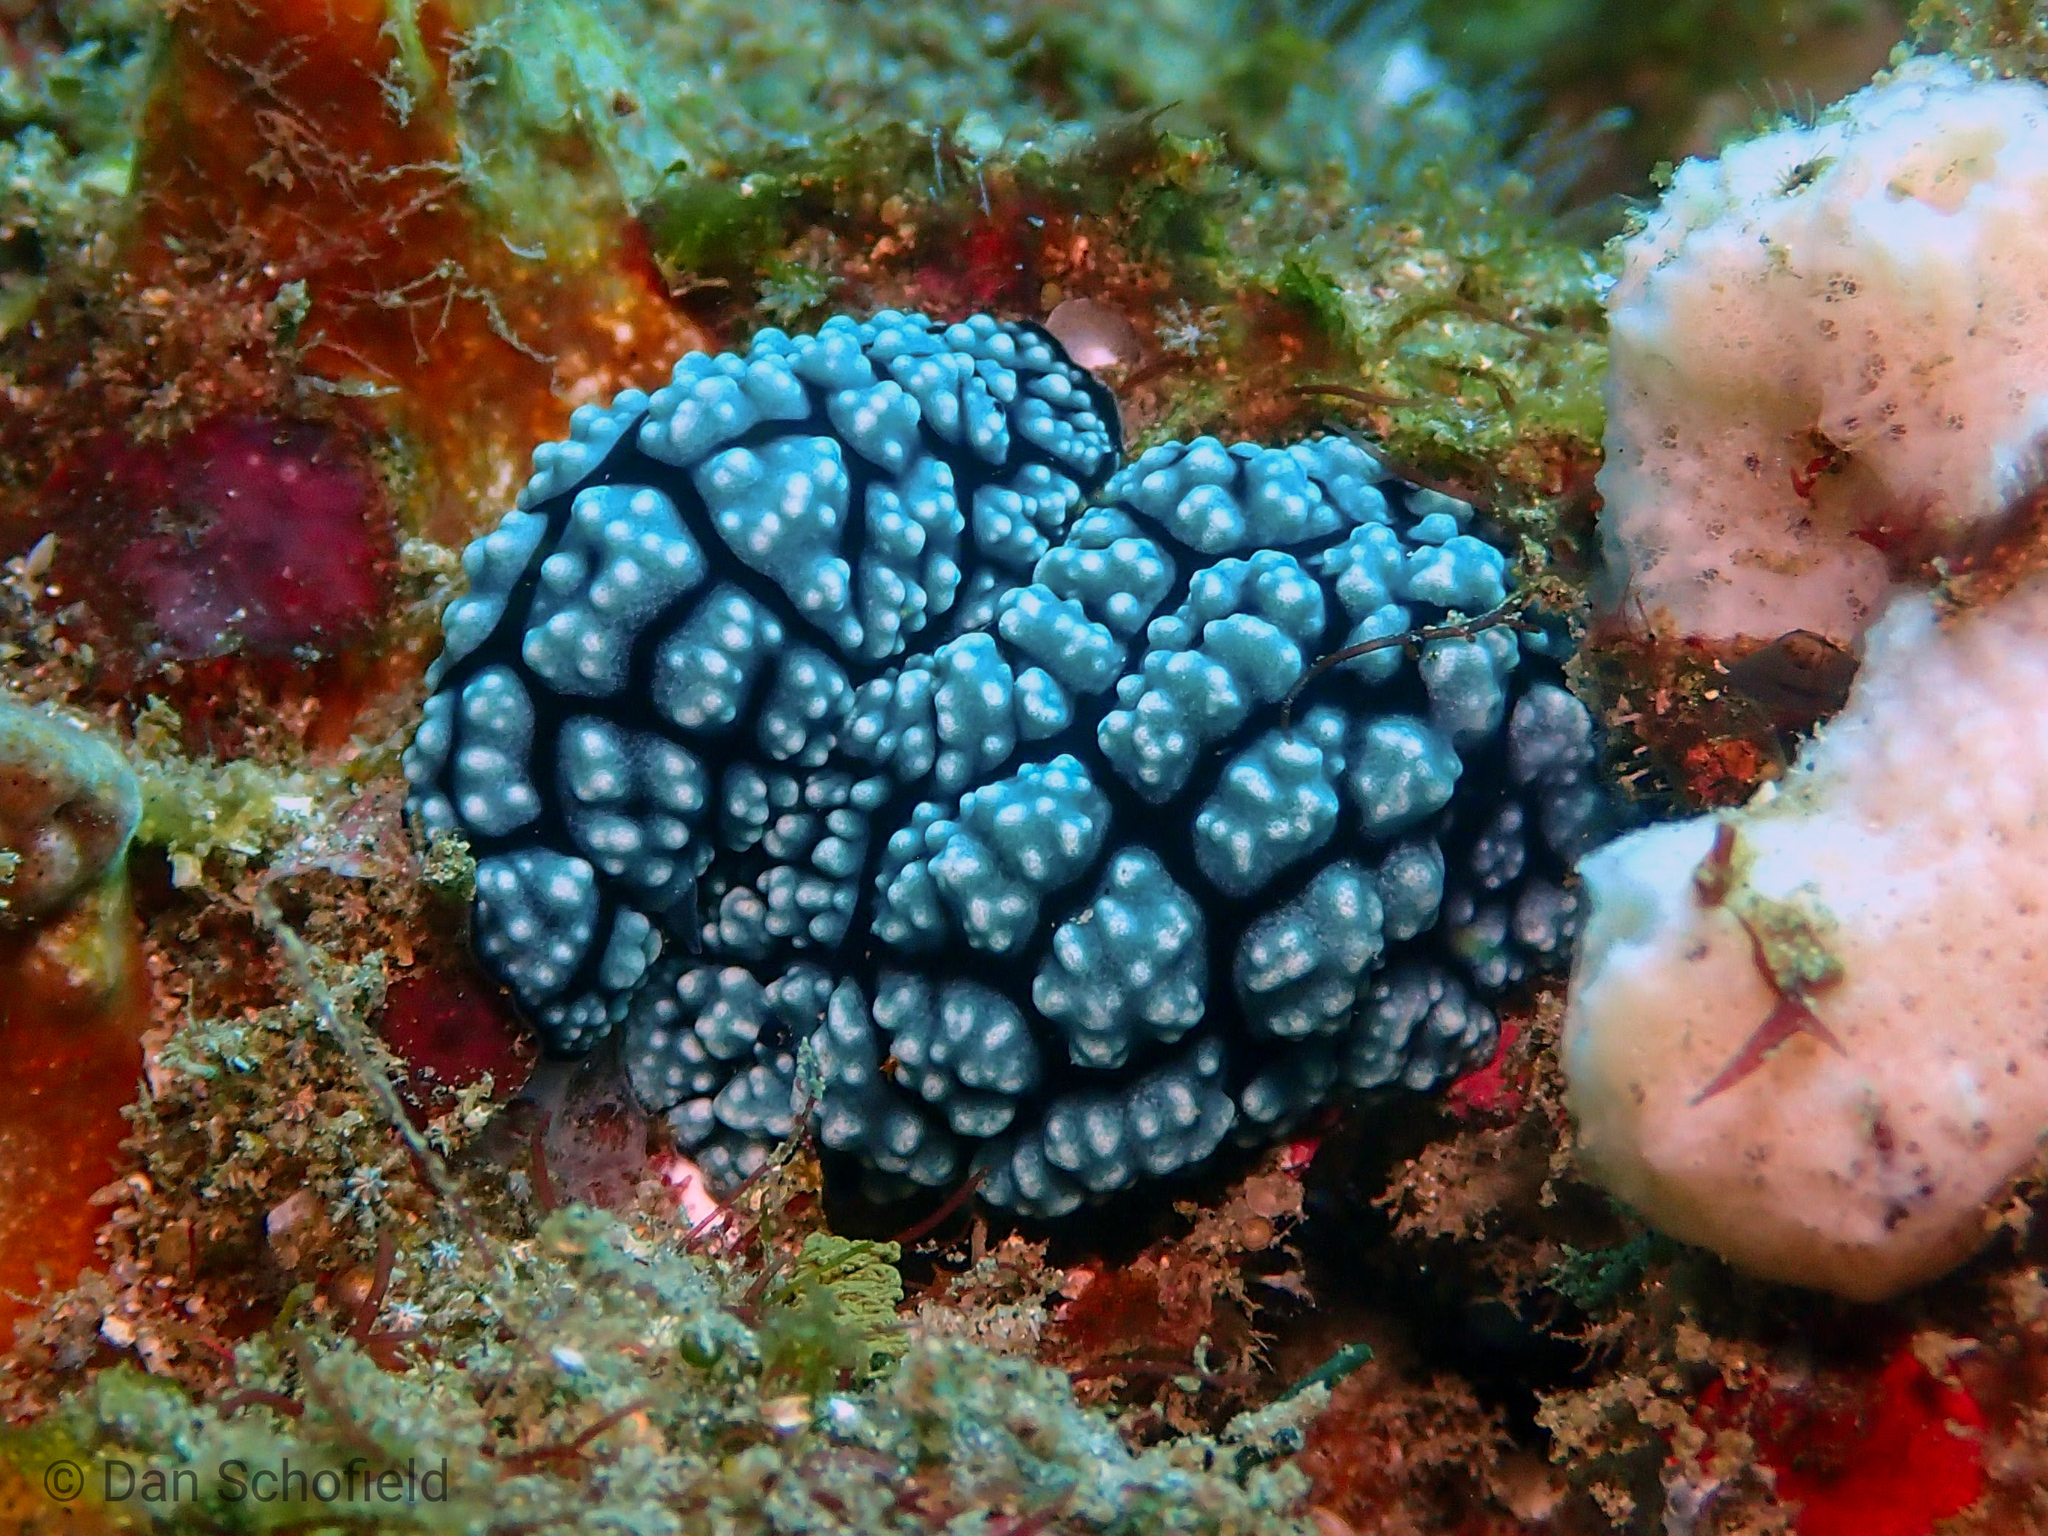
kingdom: Animalia
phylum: Mollusca
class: Gastropoda
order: Nudibranchia
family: Phyllidiidae
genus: Phyllidiella
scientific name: Phyllidiella pustulosa
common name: Pustular phyllidia
